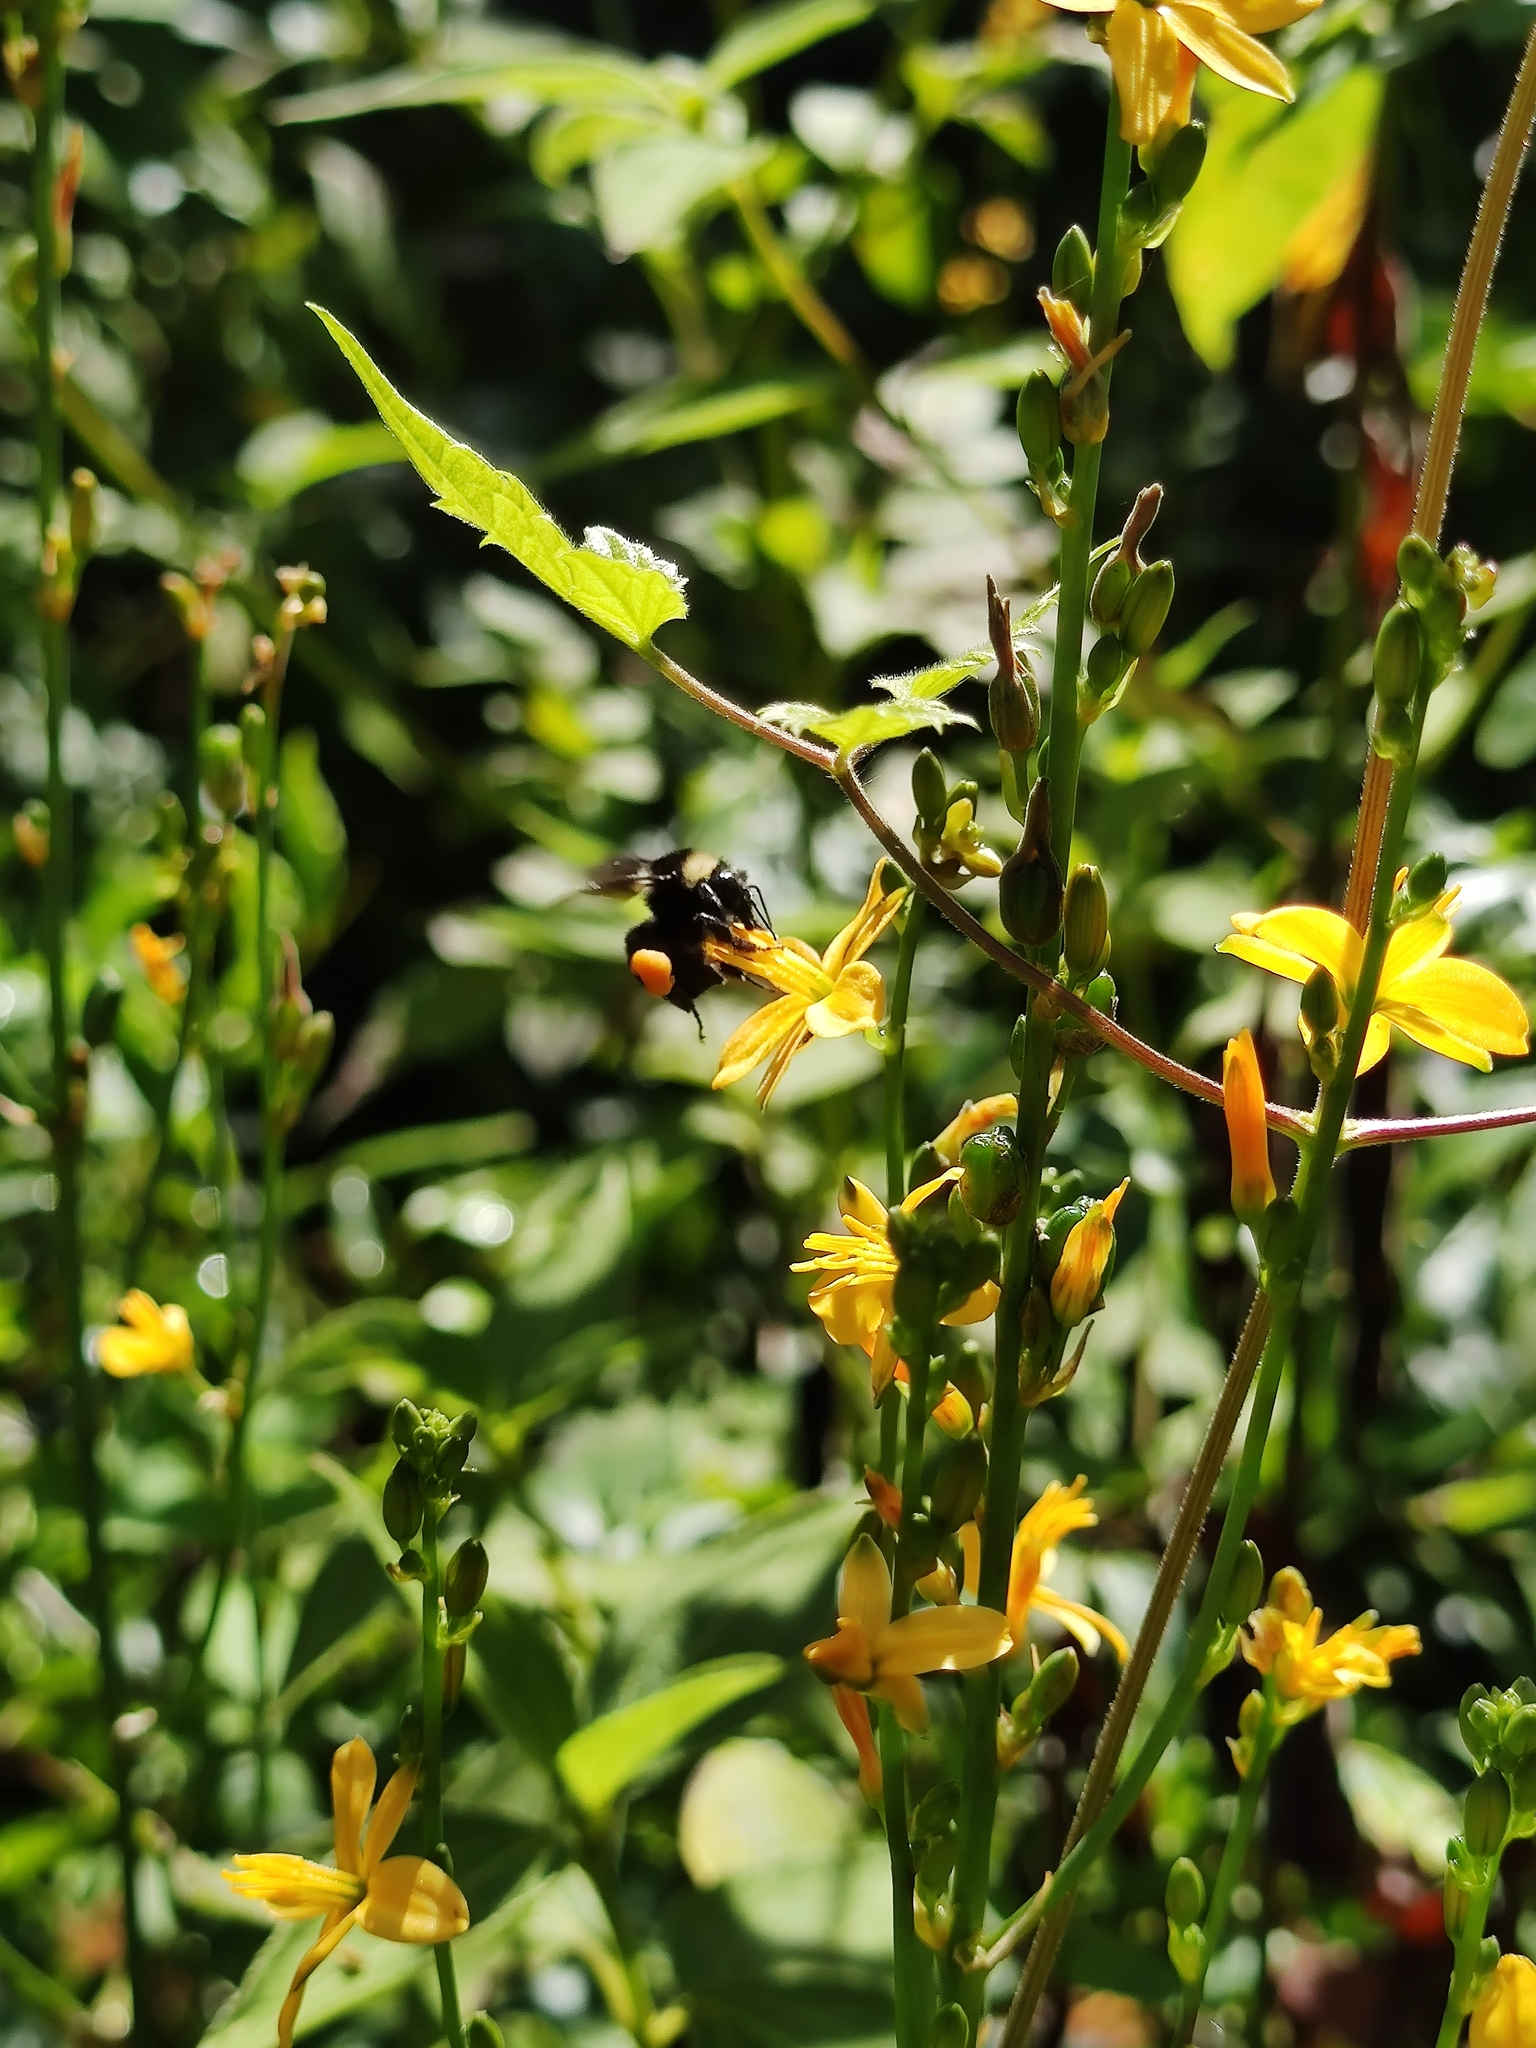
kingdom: Animalia
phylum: Arthropoda
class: Insecta
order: Hymenoptera
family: Apidae
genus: Bombus
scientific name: Bombus medius
